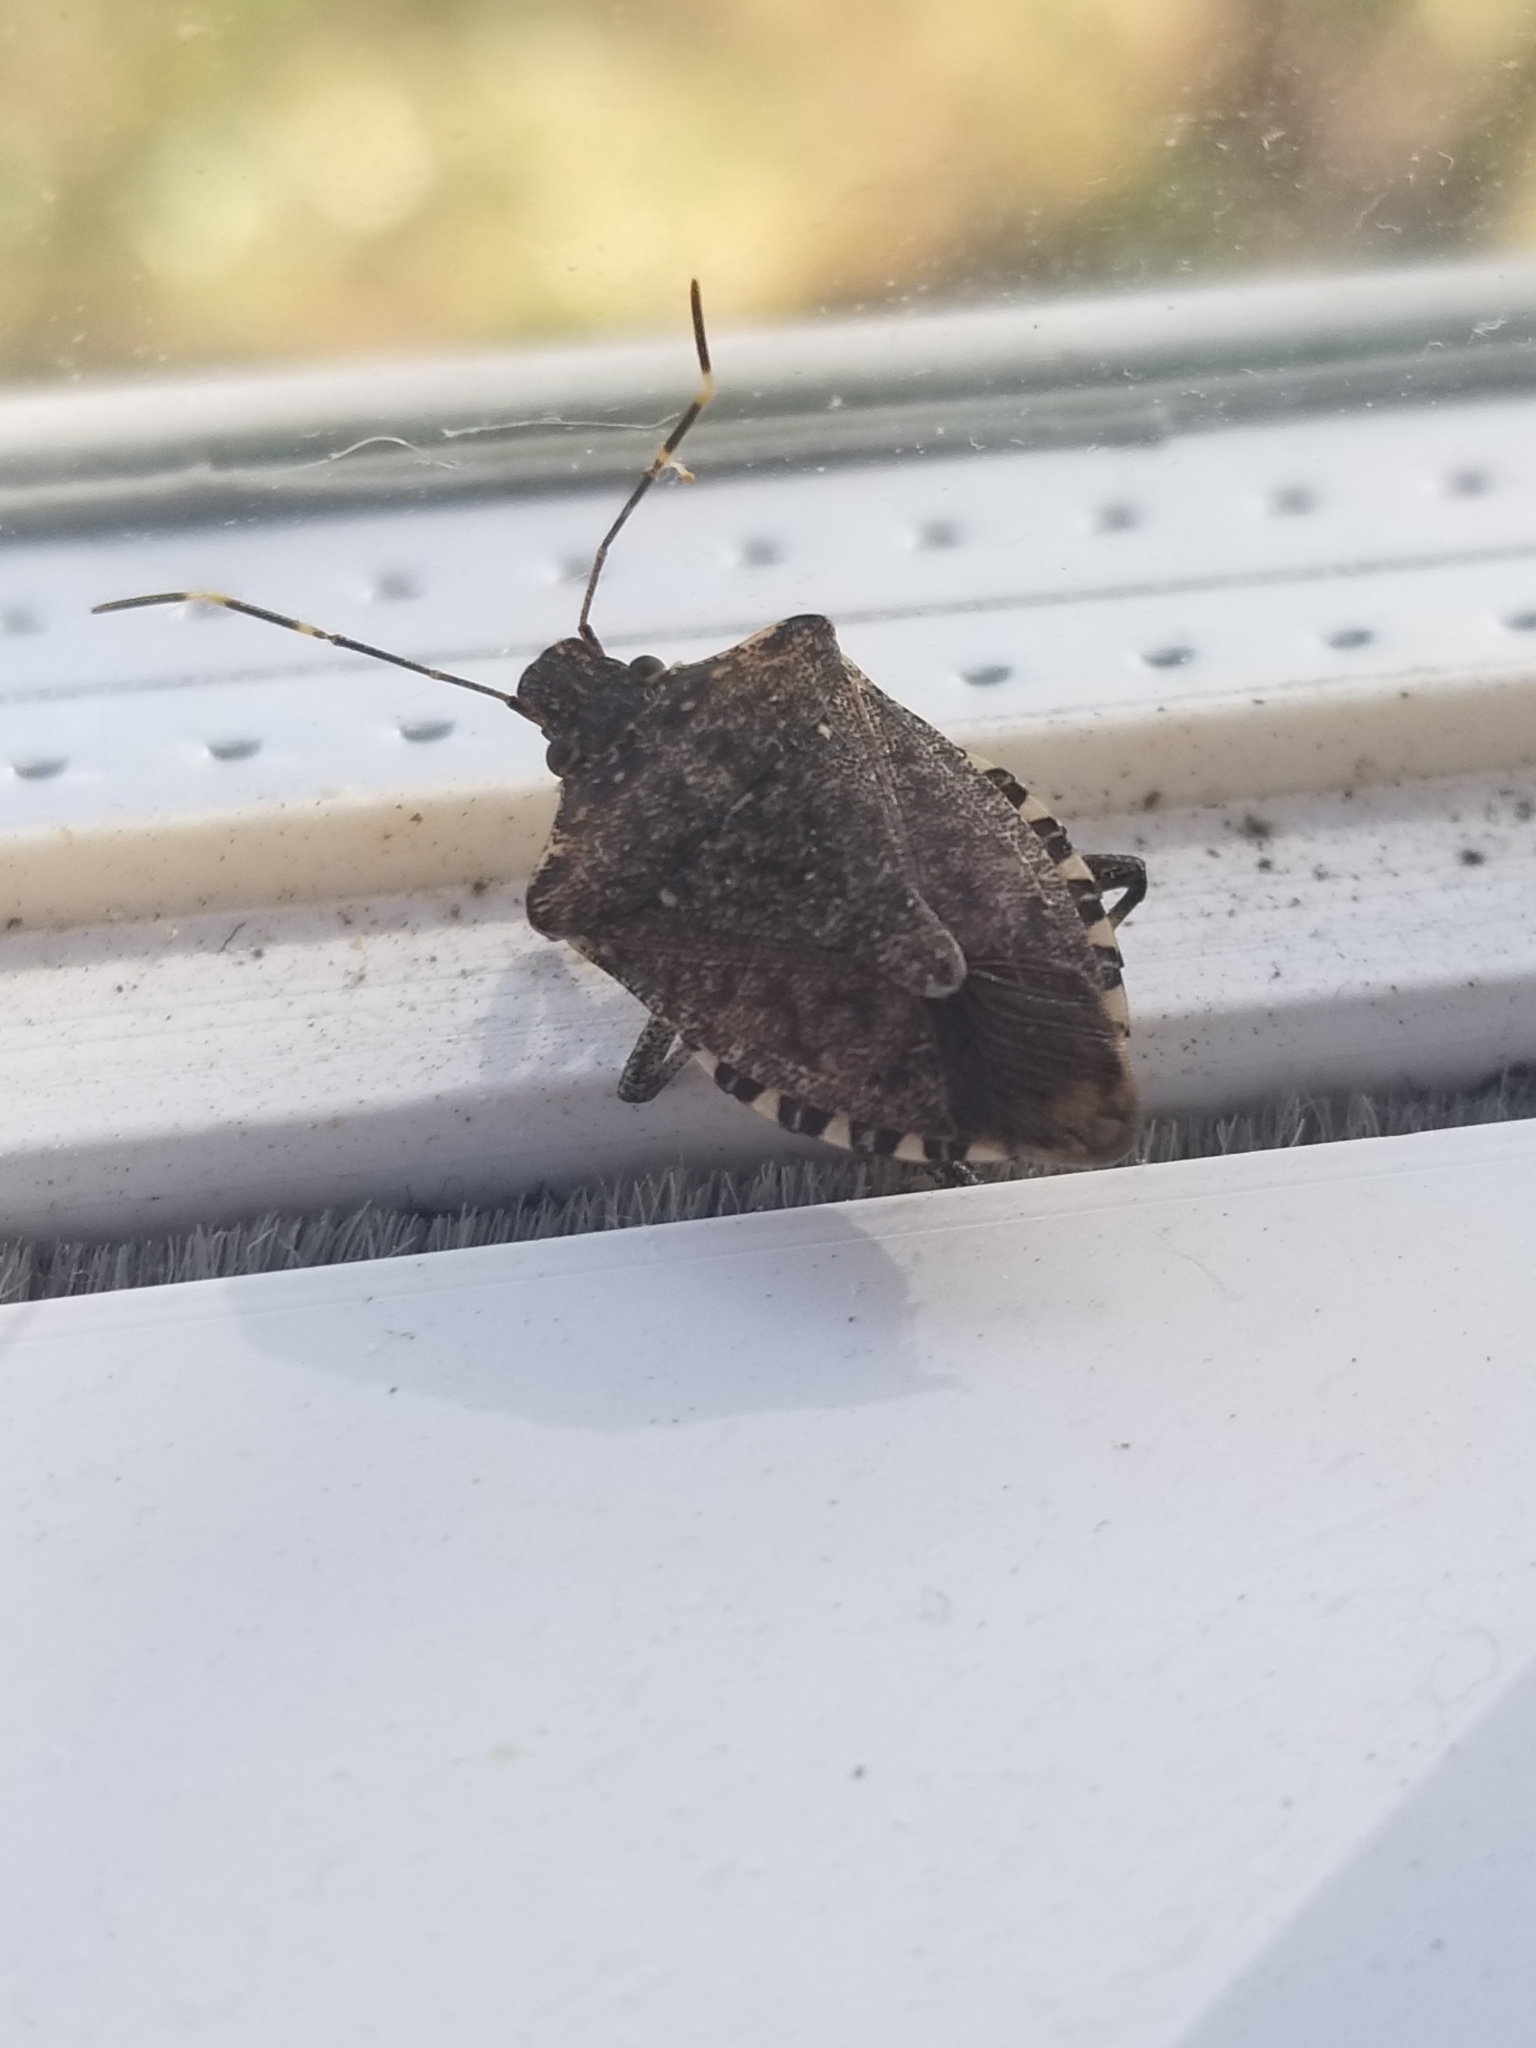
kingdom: Animalia
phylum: Arthropoda
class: Insecta
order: Hemiptera
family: Pentatomidae
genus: Halyomorpha
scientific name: Halyomorpha halys
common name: Brown marmorated stink bug
